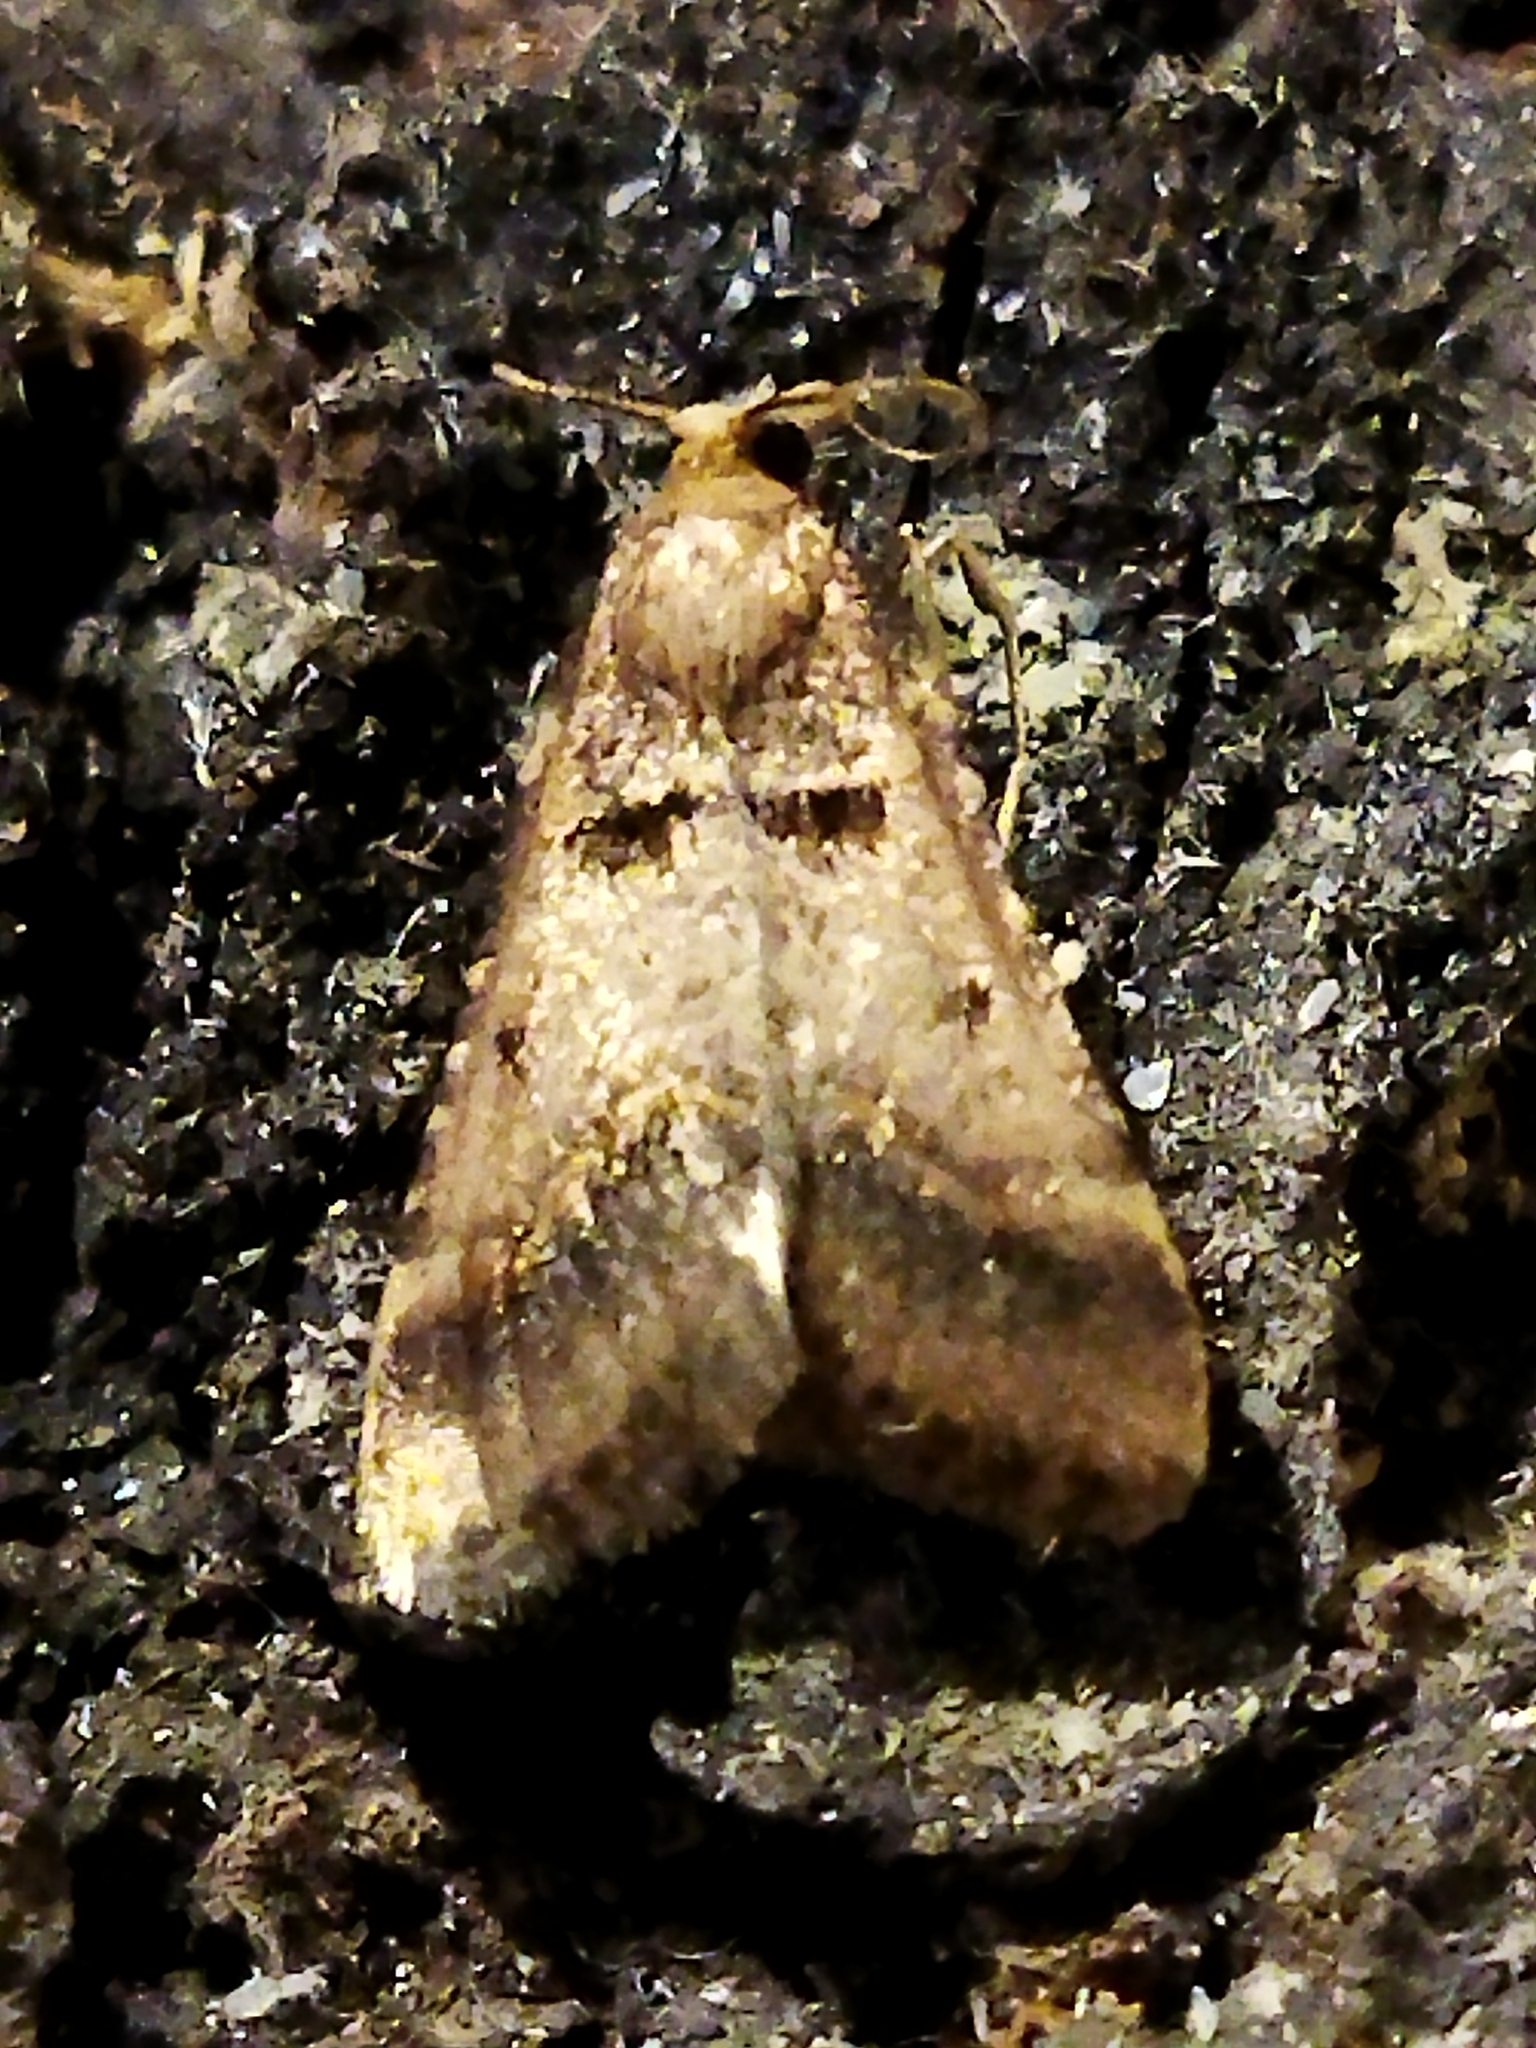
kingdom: Animalia
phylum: Arthropoda
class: Insecta
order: Lepidoptera
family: Pyralidae
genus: Stemmatophora
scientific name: Stemmatophora brunnealis
